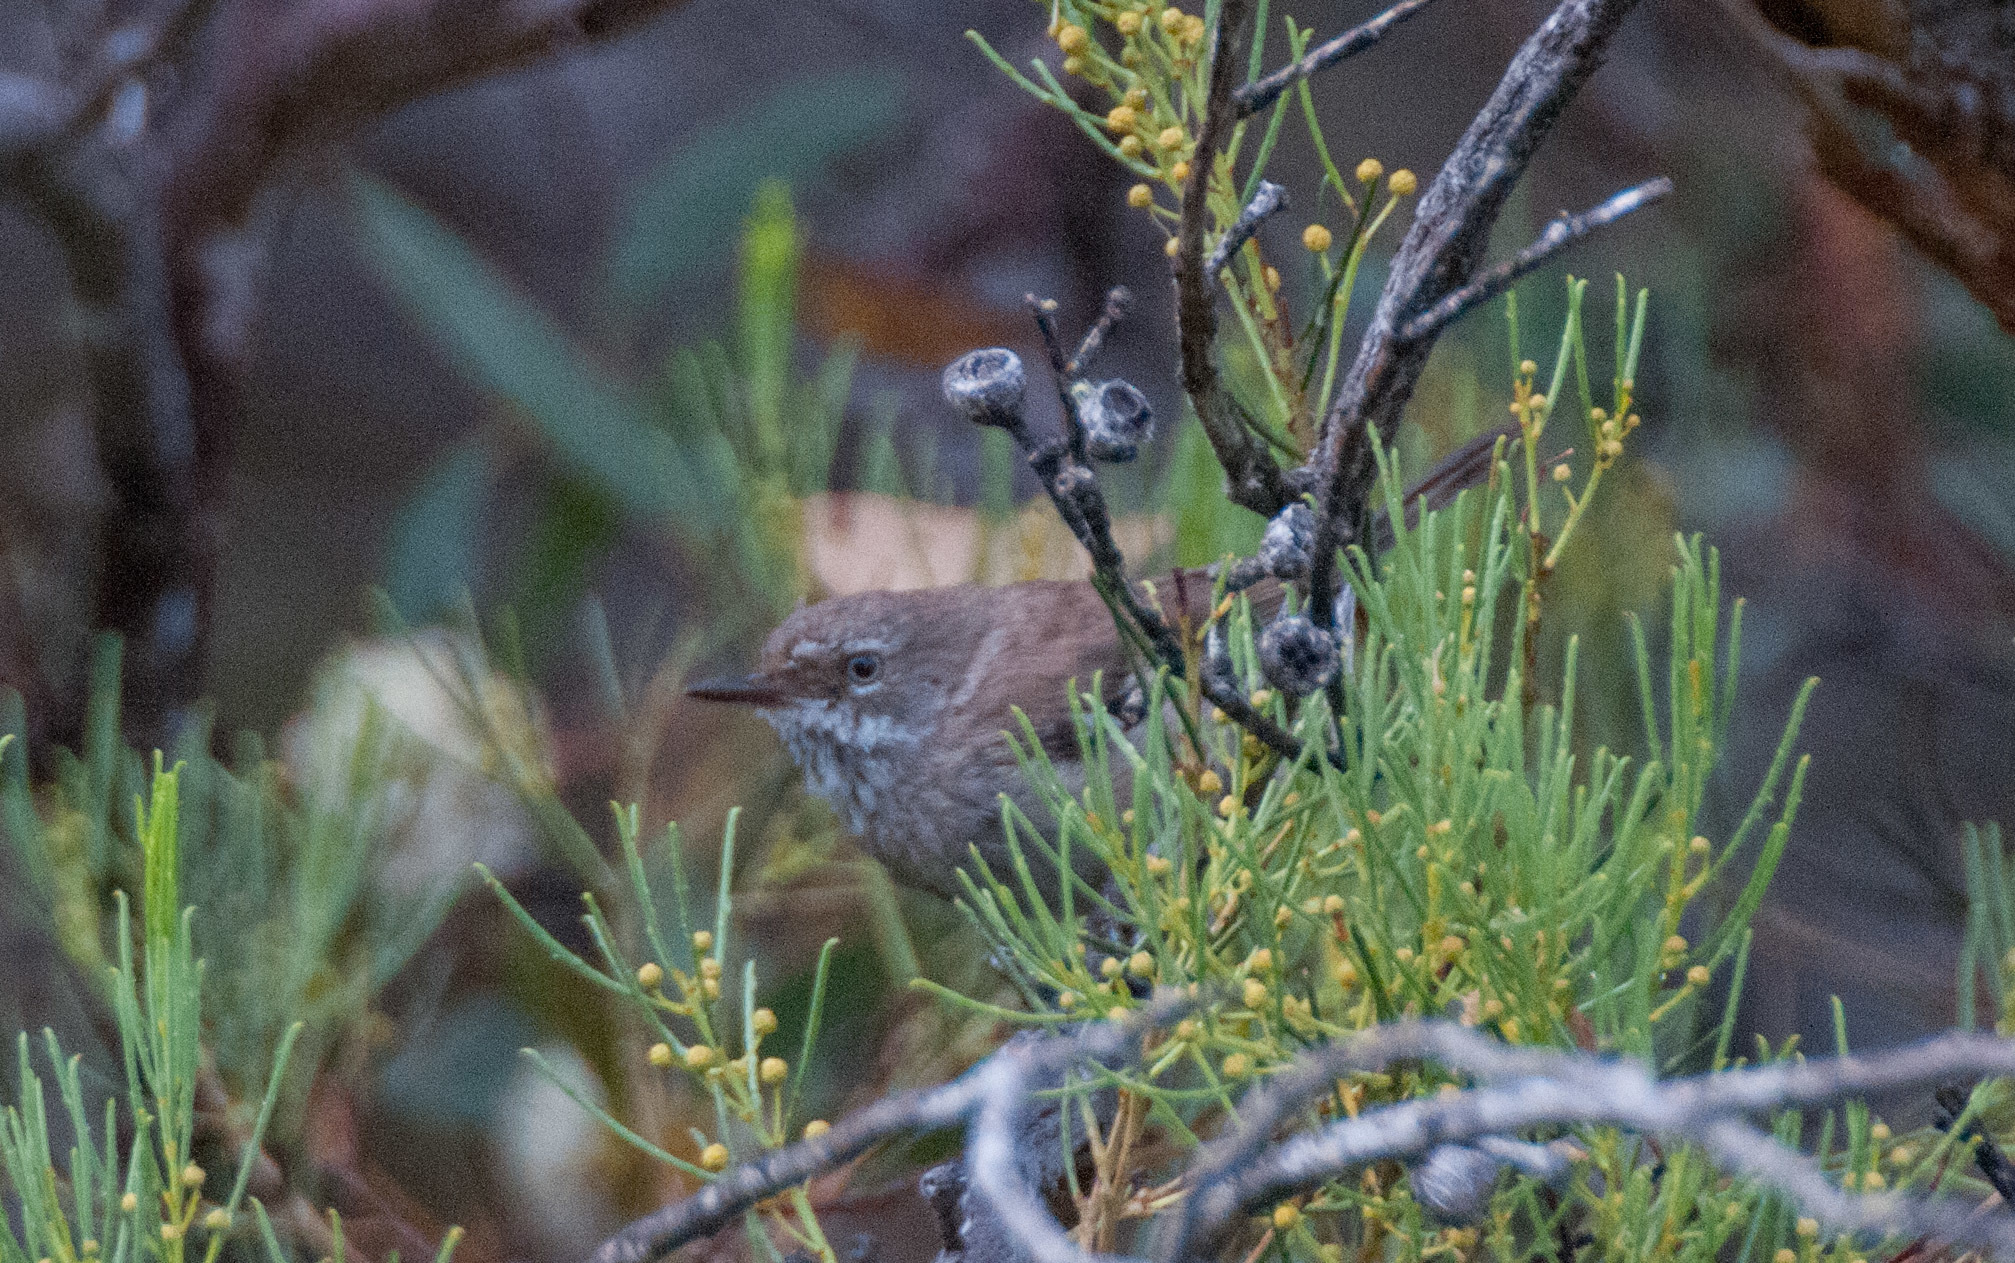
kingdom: Animalia
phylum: Chordata
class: Aves
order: Passeriformes
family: Acanthizidae
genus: Sericornis
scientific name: Sericornis maculatus
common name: Spotted scrubwren
